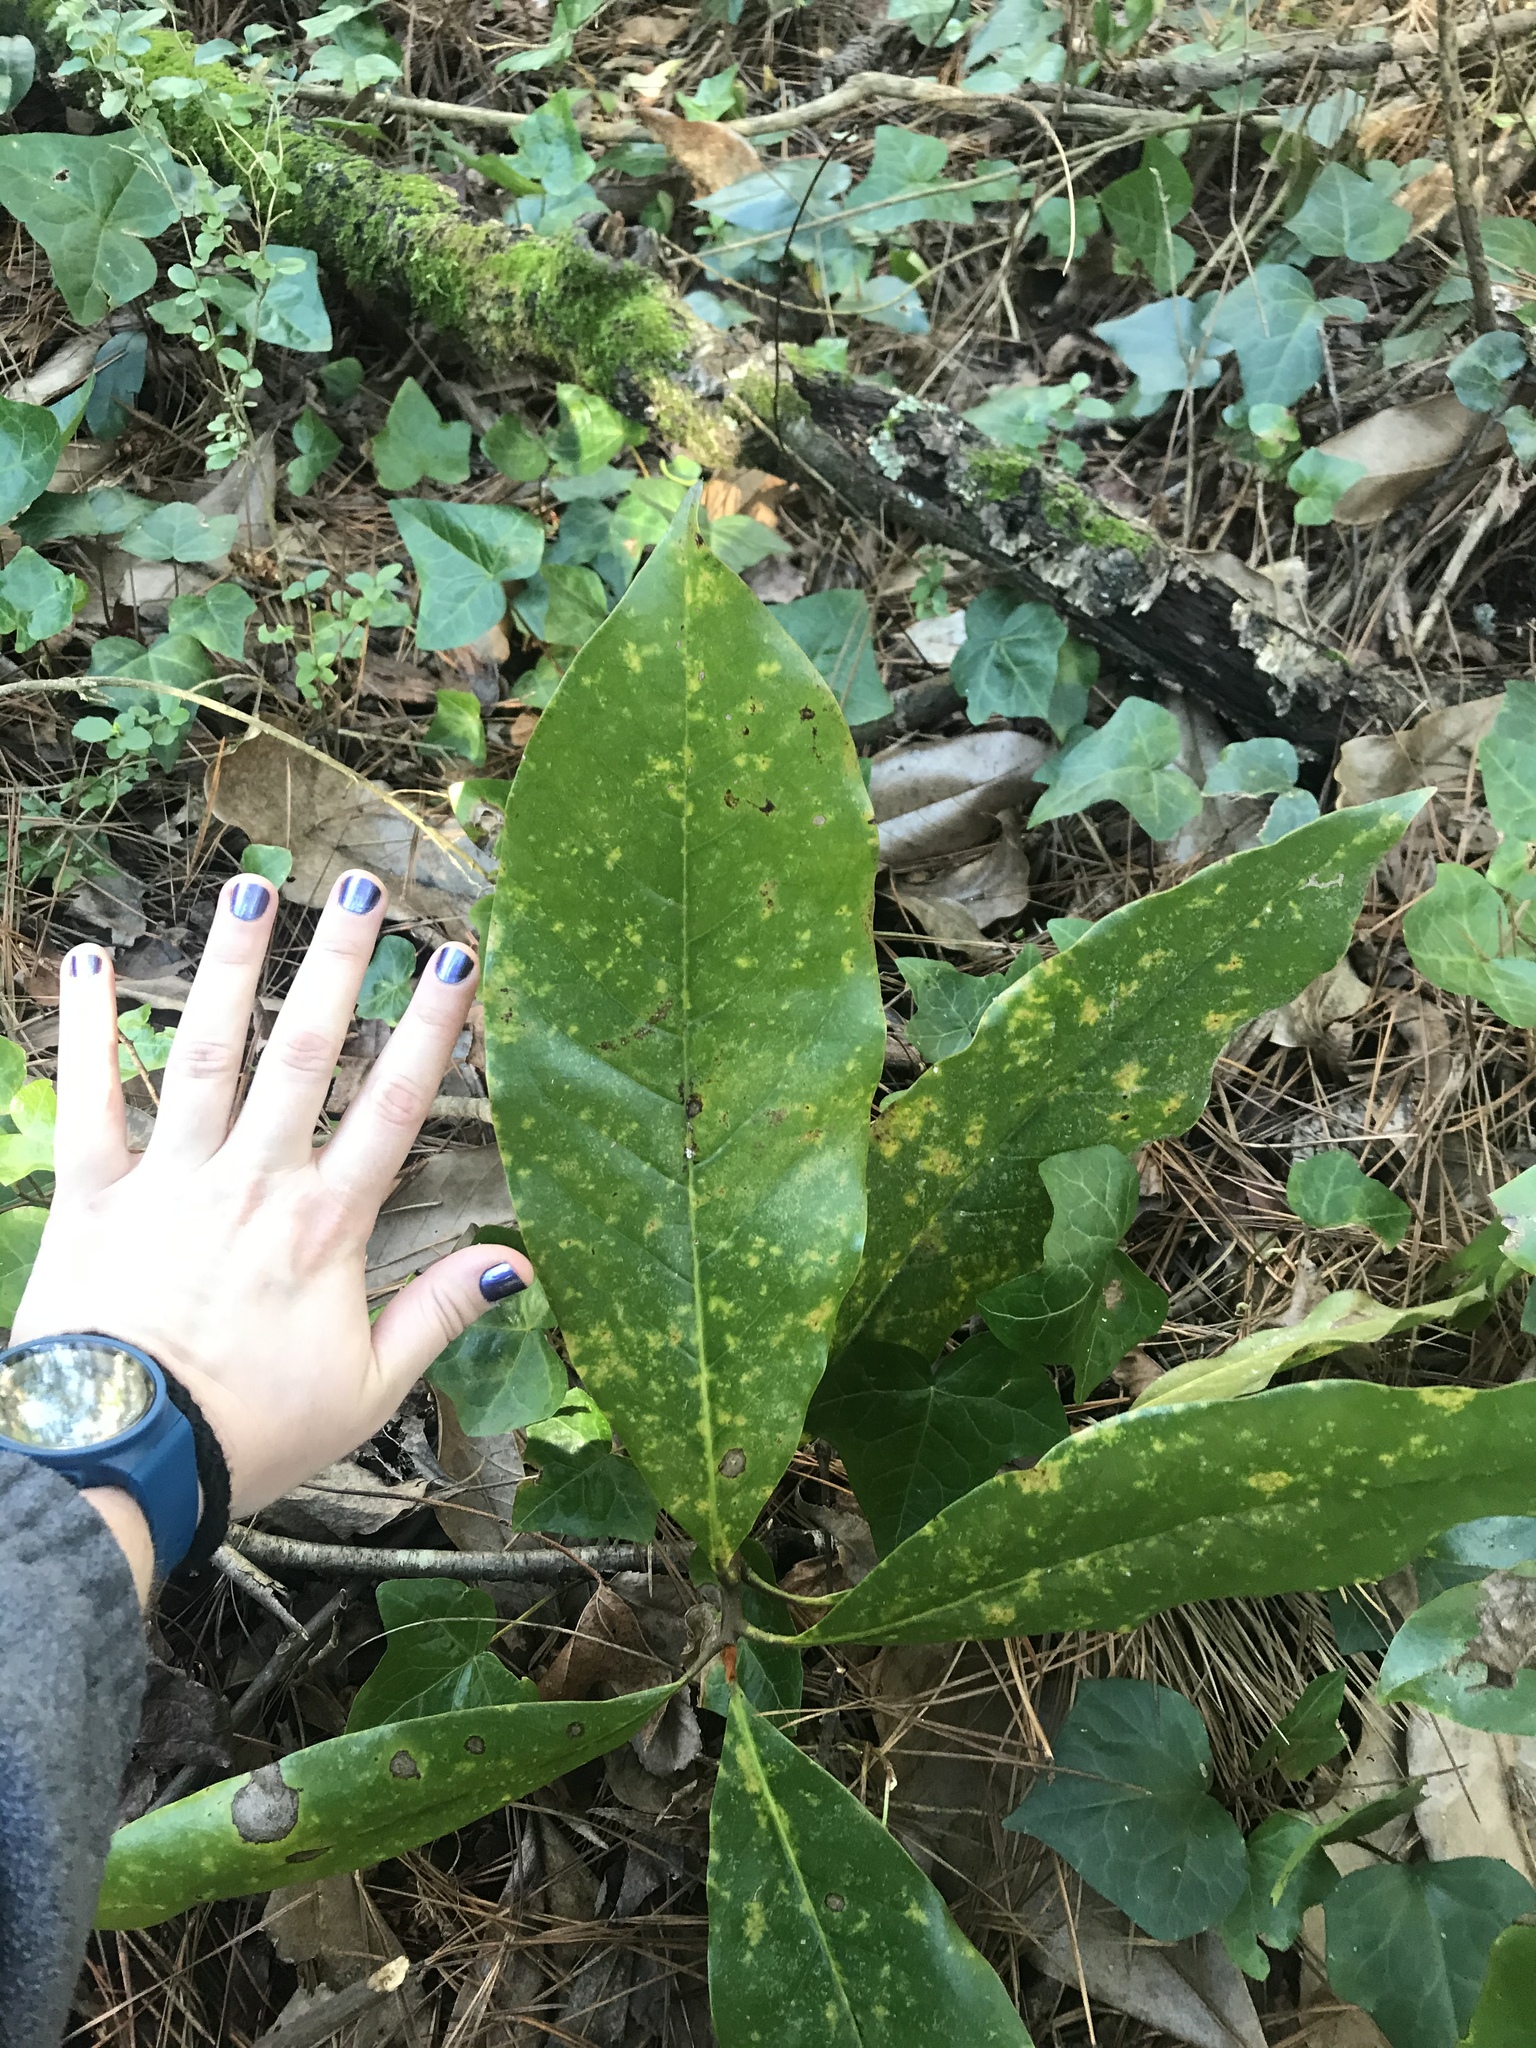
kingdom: Plantae
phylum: Tracheophyta
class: Magnoliopsida
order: Magnoliales
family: Magnoliaceae
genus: Magnolia
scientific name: Magnolia grandiflora
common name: Southern magnolia
